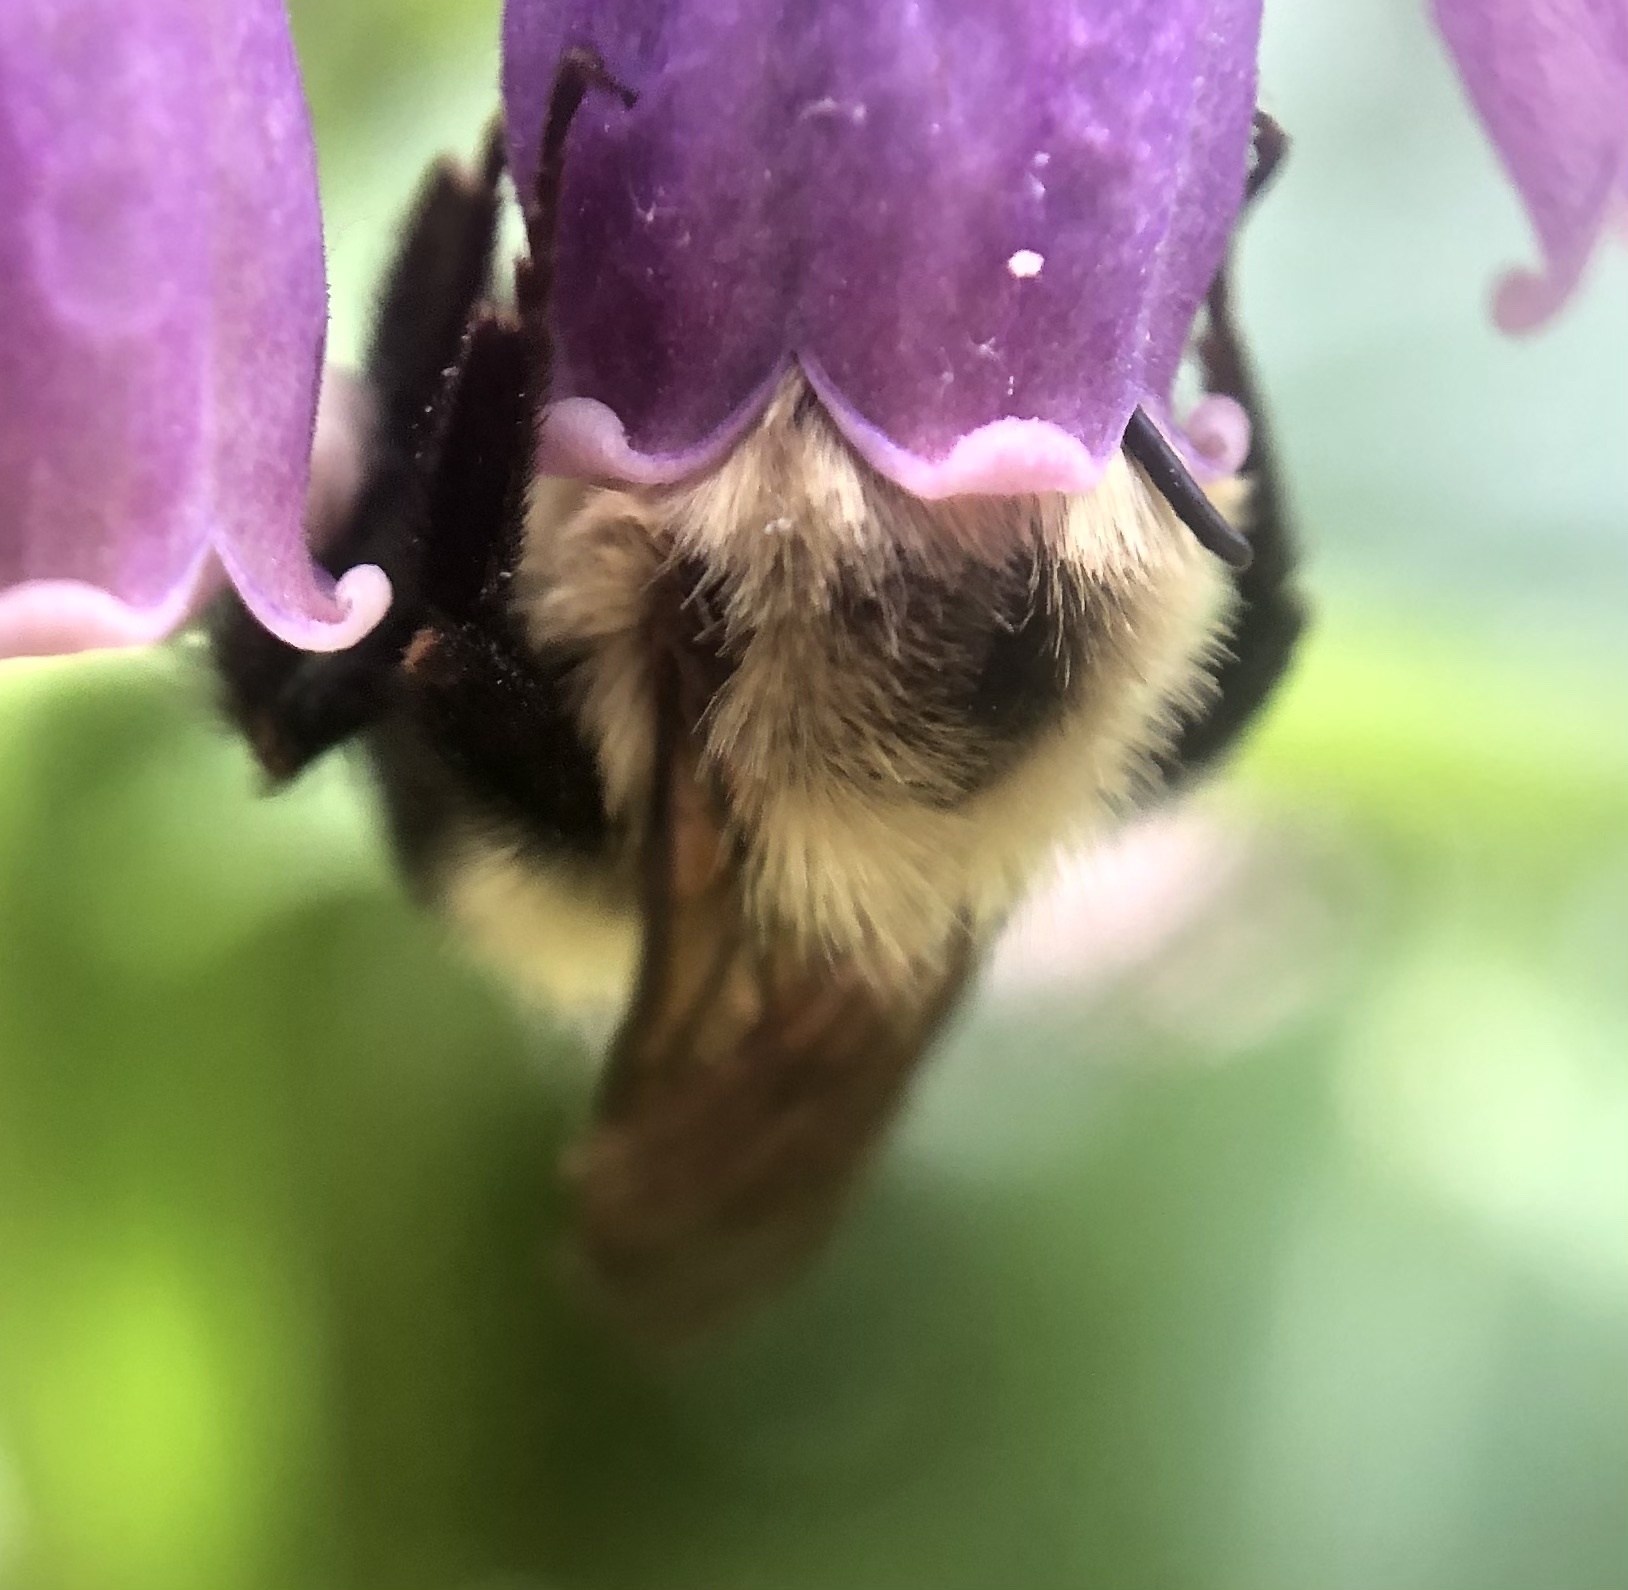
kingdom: Animalia
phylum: Arthropoda
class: Insecta
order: Hymenoptera
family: Apidae
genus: Bombus
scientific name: Bombus bimaculatus
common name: Two-spotted bumble bee
